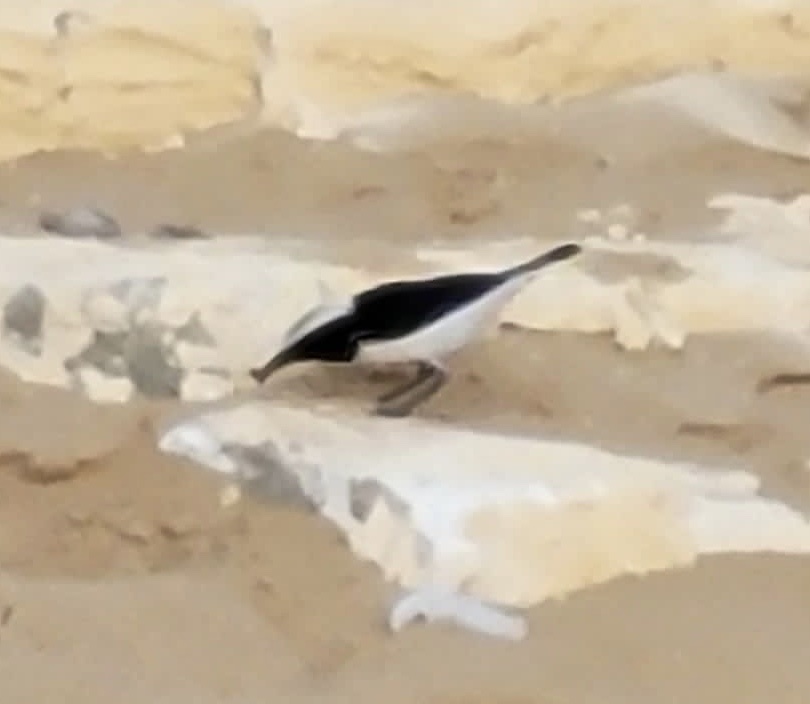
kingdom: Animalia
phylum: Chordata
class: Aves
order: Passeriformes
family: Muscicapidae
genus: Oenanthe
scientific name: Oenanthe pleschanka
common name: Pied wheatear
